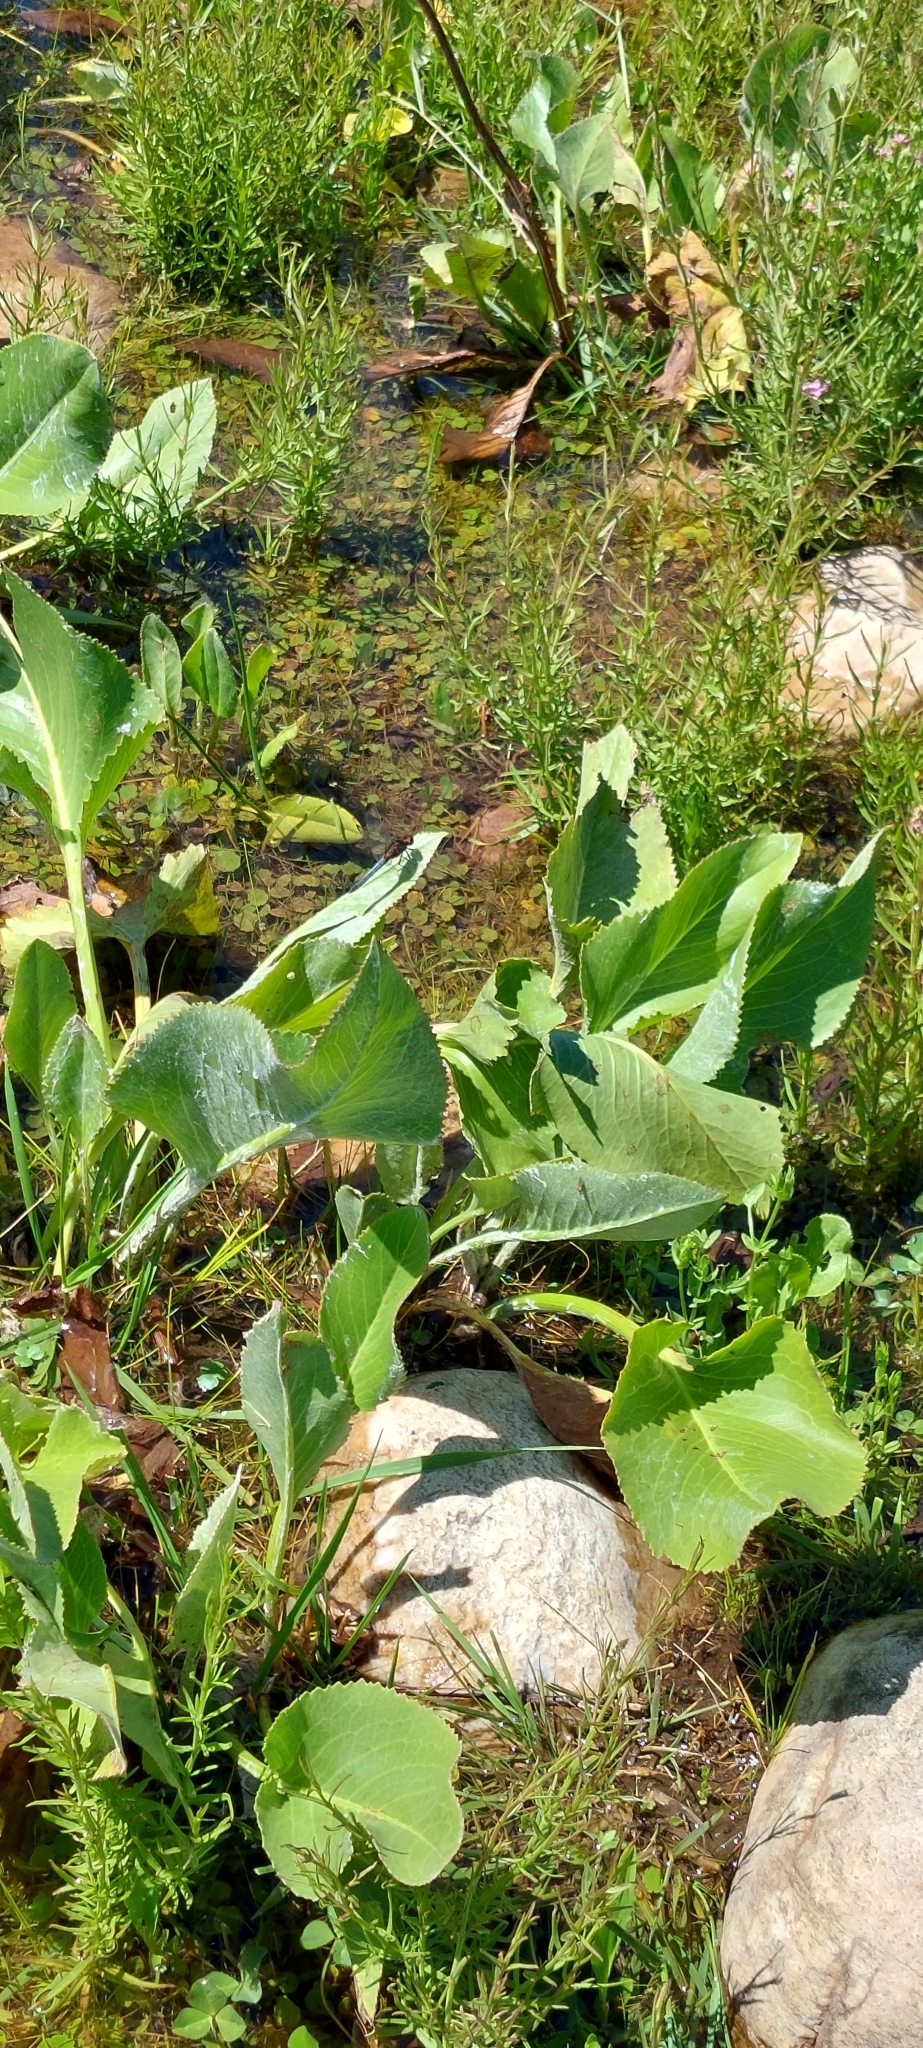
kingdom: Plantae
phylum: Tracheophyta
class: Magnoliopsida
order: Asterales
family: Asteraceae
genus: Senecio
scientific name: Senecio bonariensis
